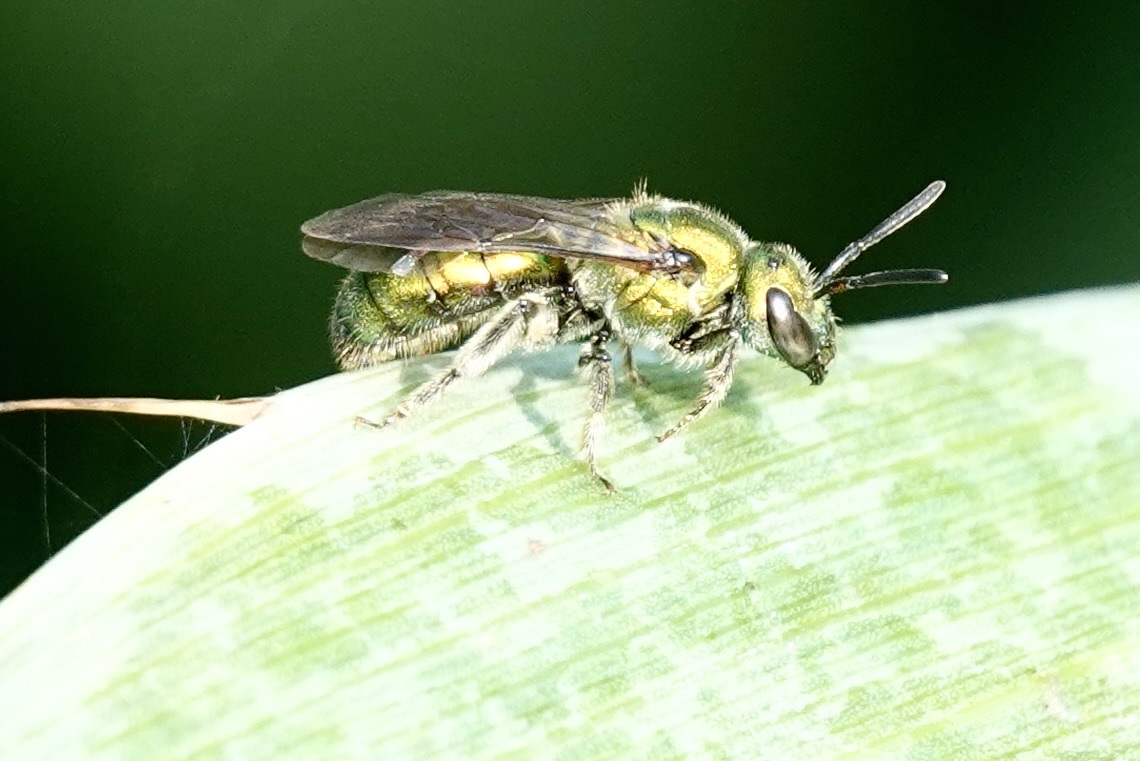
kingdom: Animalia
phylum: Arthropoda
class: Insecta
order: Hymenoptera
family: Halictidae
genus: Augochlora
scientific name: Augochlora pura
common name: Pure green sweat bee
